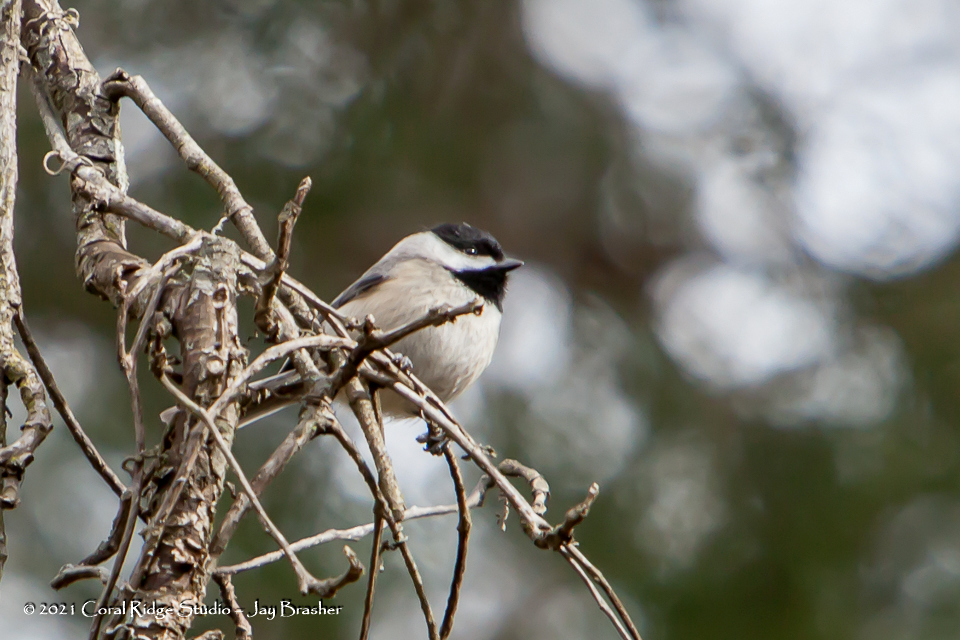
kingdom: Animalia
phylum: Chordata
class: Aves
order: Passeriformes
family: Paridae
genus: Poecile
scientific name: Poecile carolinensis
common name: Carolina chickadee
